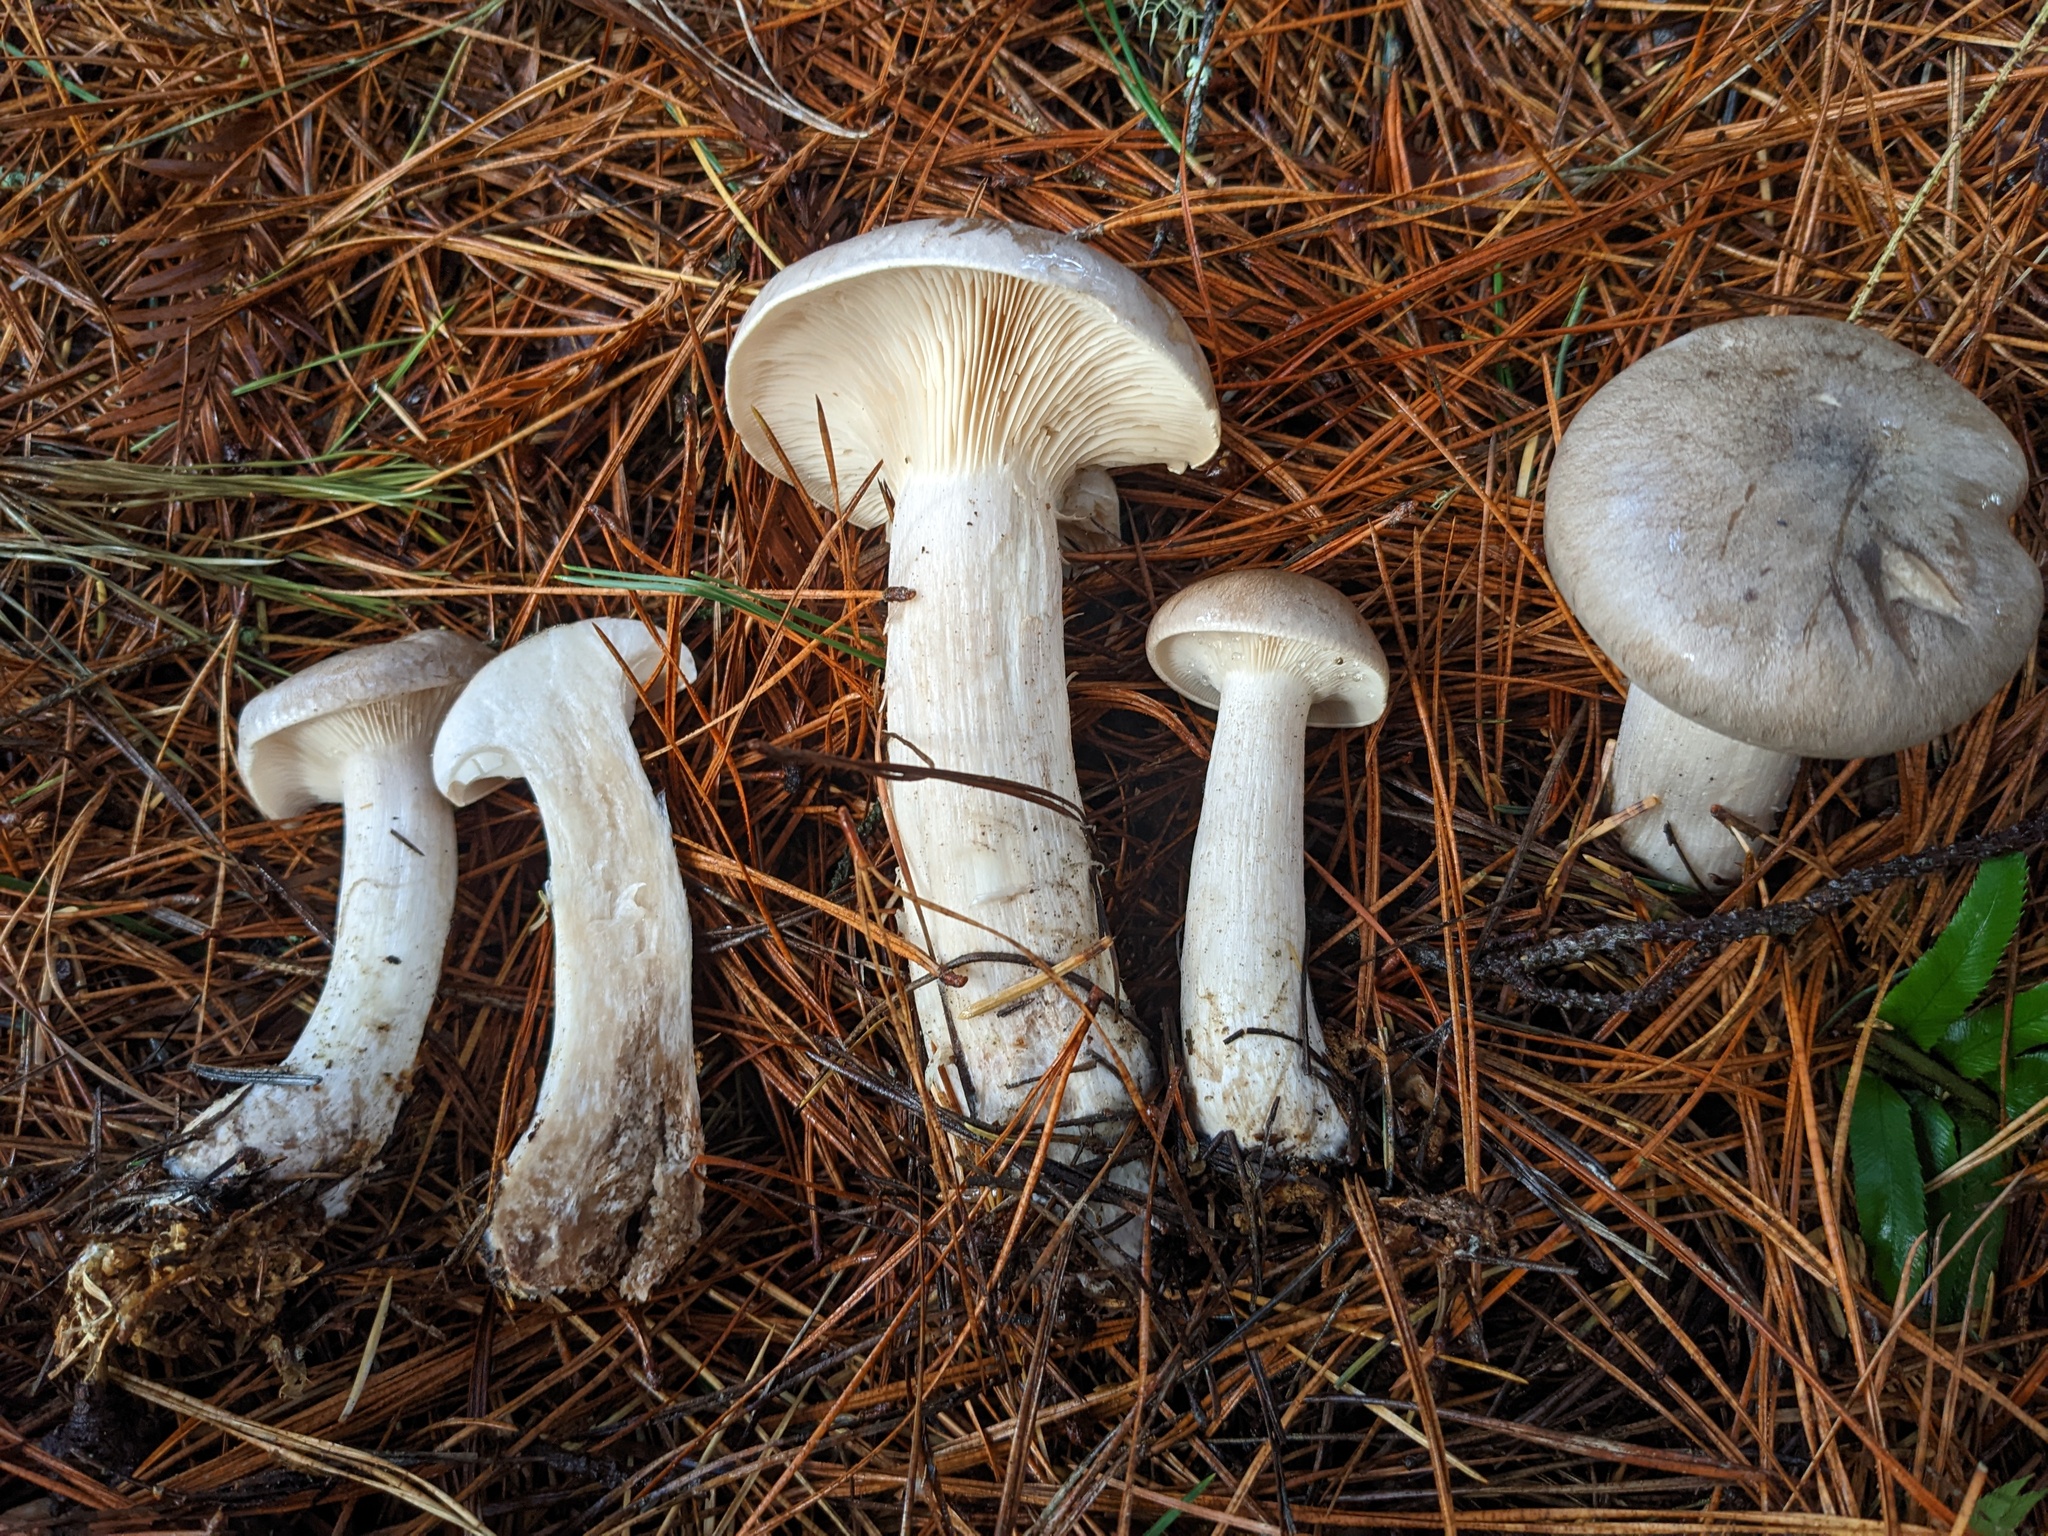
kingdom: Fungi
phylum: Basidiomycota
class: Agaricomycetes
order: Agaricales
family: Tricholomataceae
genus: Clitocybe
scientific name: Clitocybe nebularis
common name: Clouded agaric
